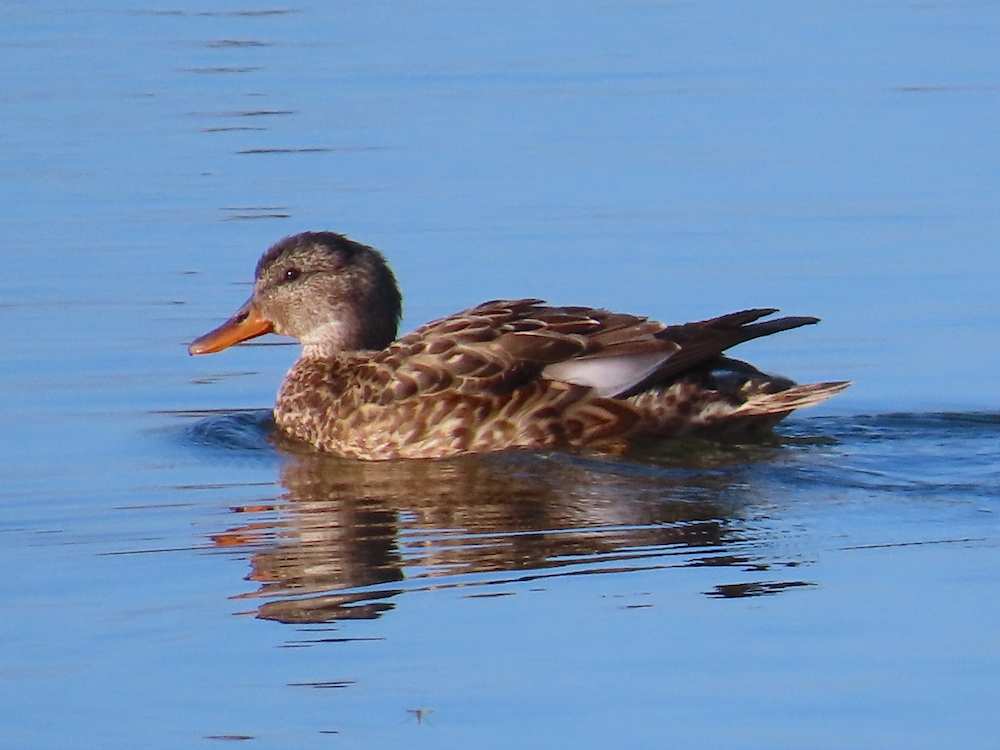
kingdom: Animalia
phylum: Chordata
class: Aves
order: Anseriformes
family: Anatidae
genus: Mareca
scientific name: Mareca strepera
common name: Gadwall
